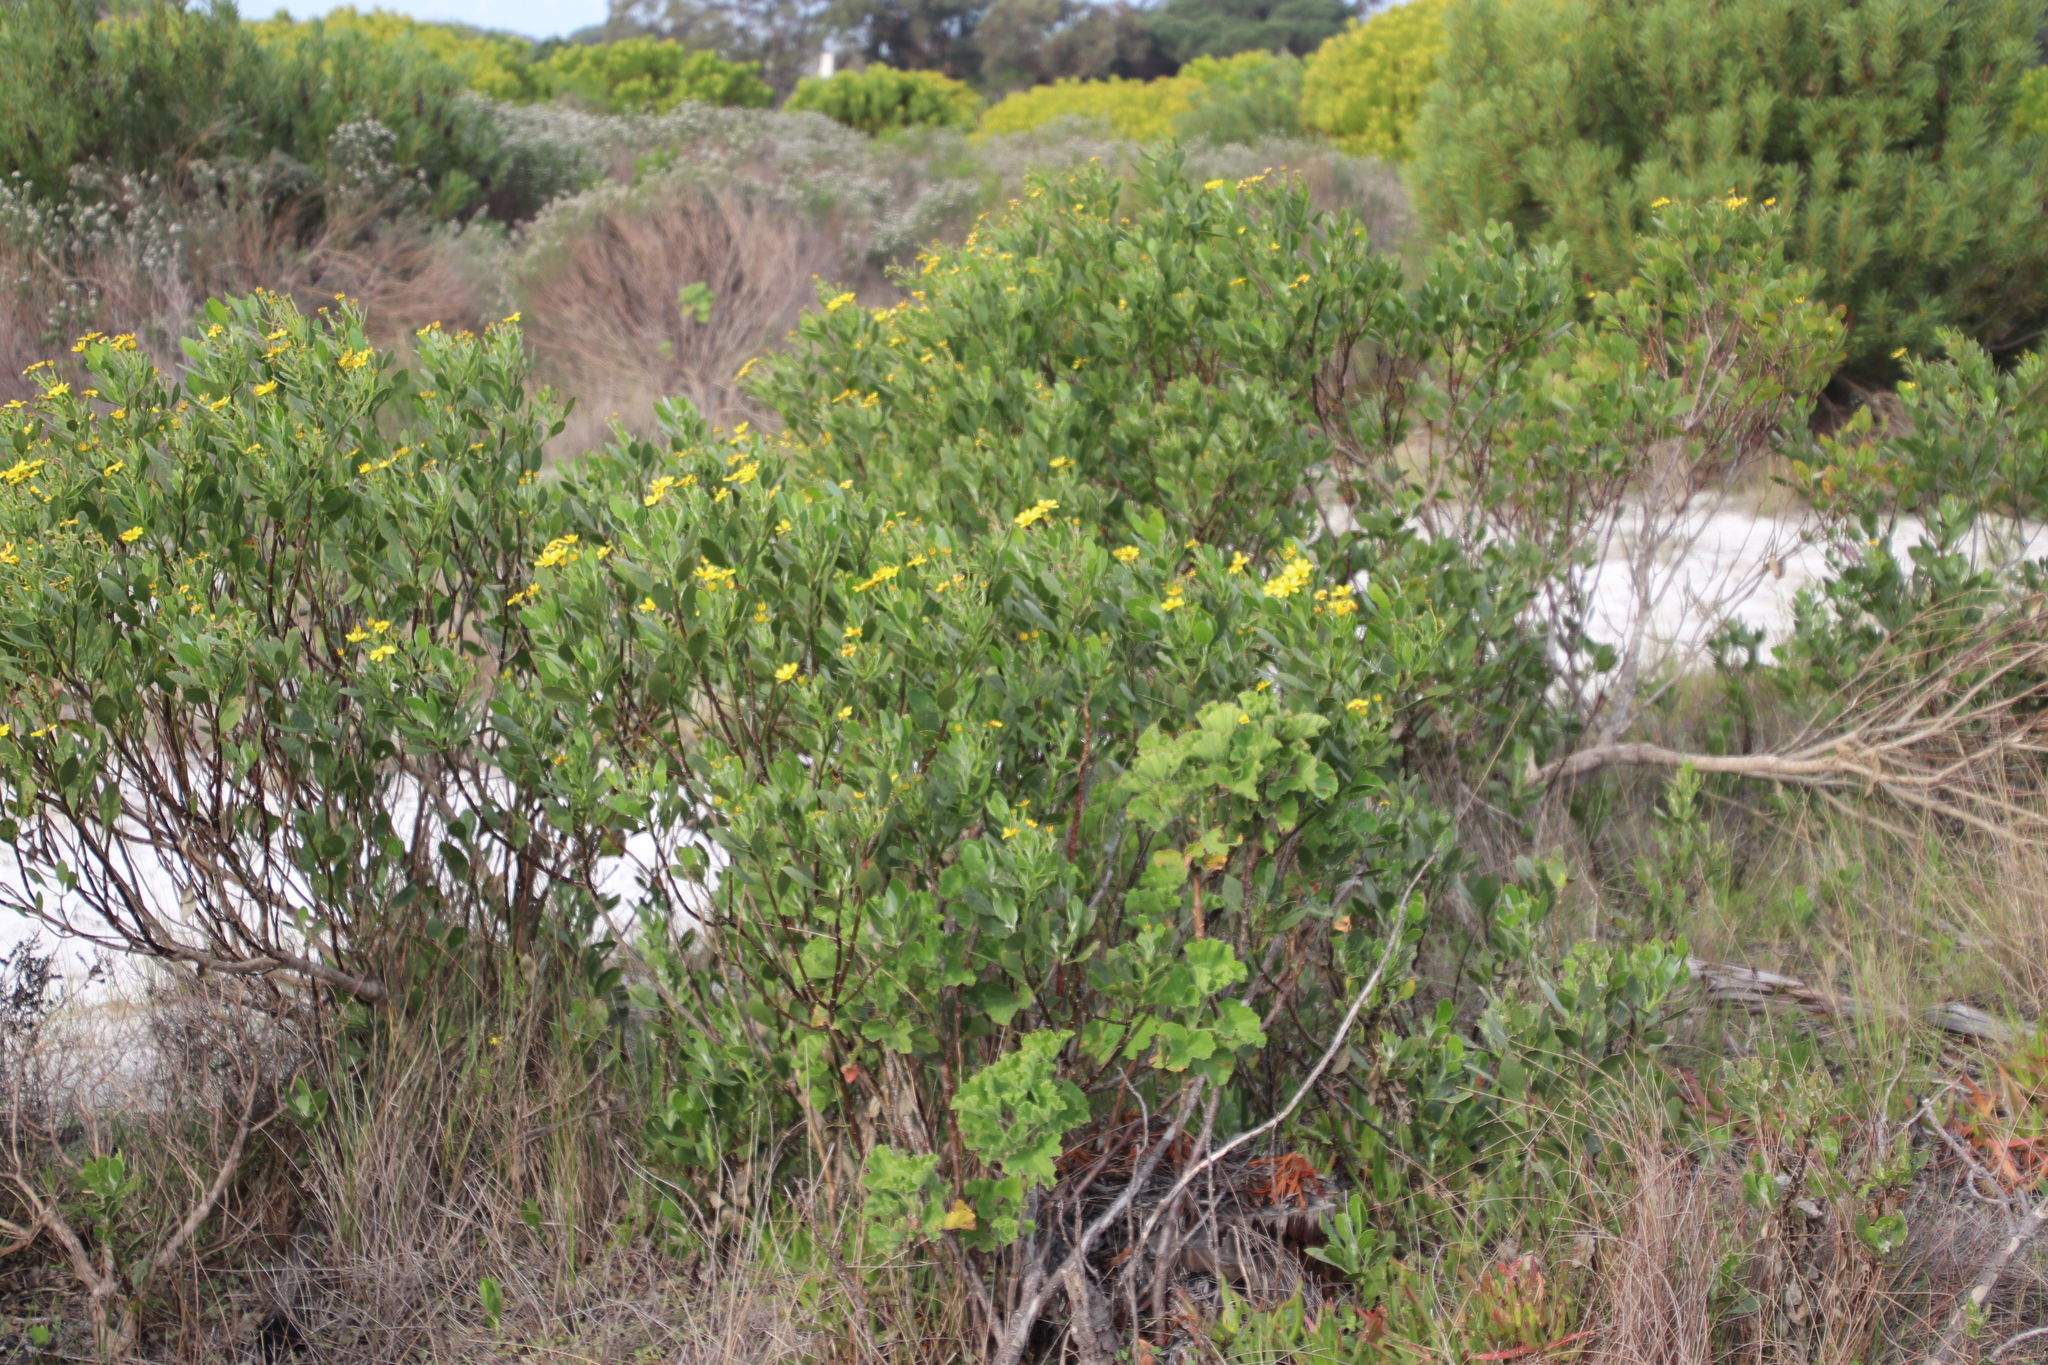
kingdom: Plantae
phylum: Tracheophyta
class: Magnoliopsida
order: Asterales
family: Asteraceae
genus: Osteospermum
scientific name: Osteospermum moniliferum
